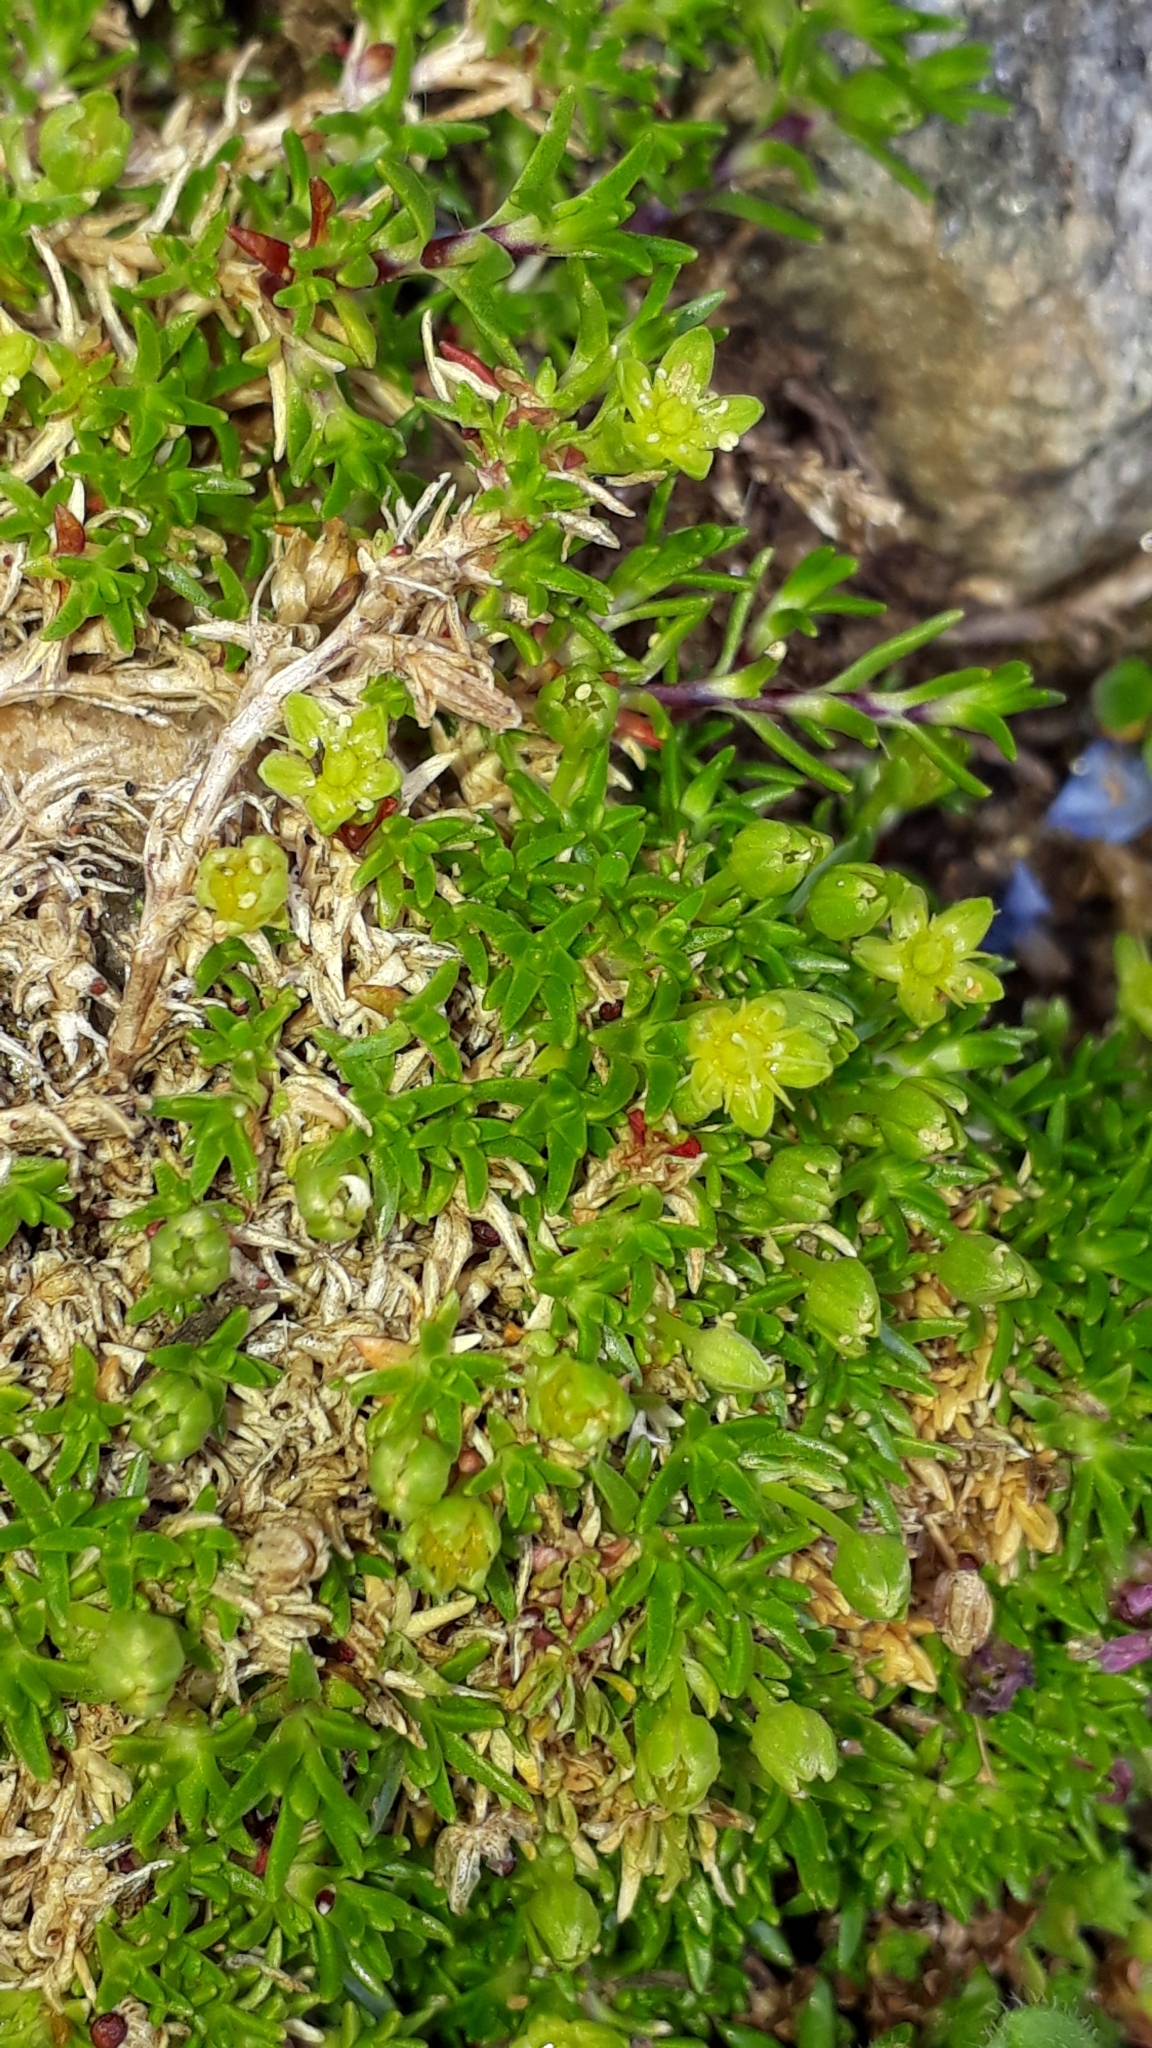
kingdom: Plantae
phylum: Tracheophyta
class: Magnoliopsida
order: Caryophyllales
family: Caryophyllaceae
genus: Cherleria
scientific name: Cherleria sedoides
